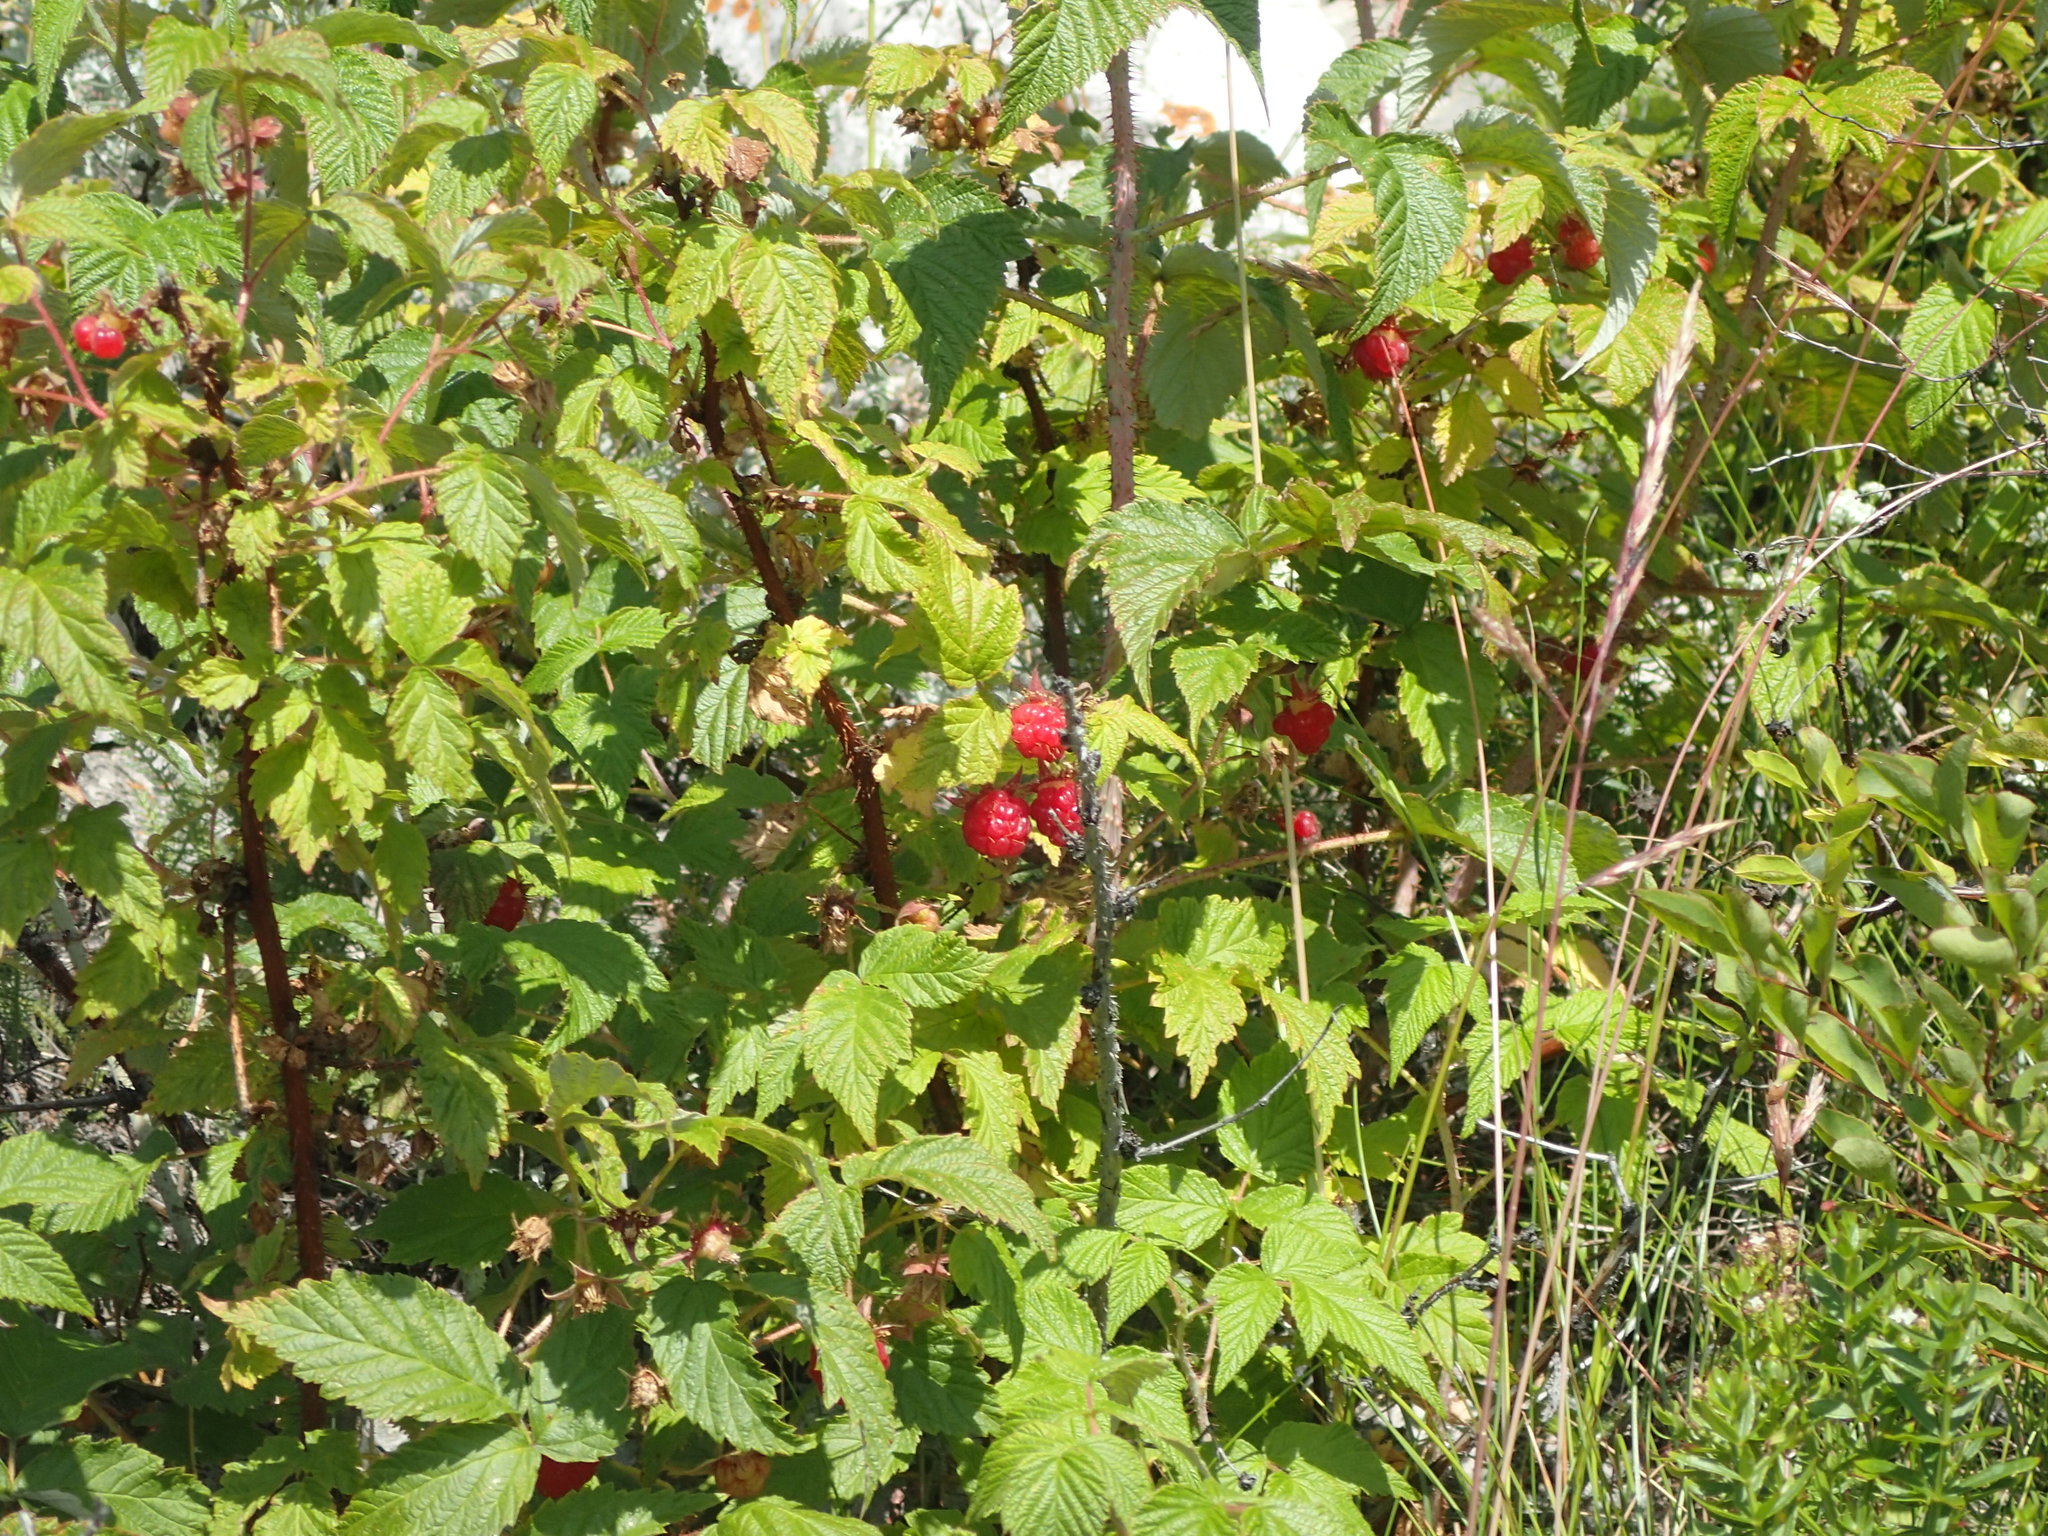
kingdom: Plantae
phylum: Tracheophyta
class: Magnoliopsida
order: Rosales
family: Rosaceae
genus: Rubus
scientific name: Rubus idaeus
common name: Raspberry
